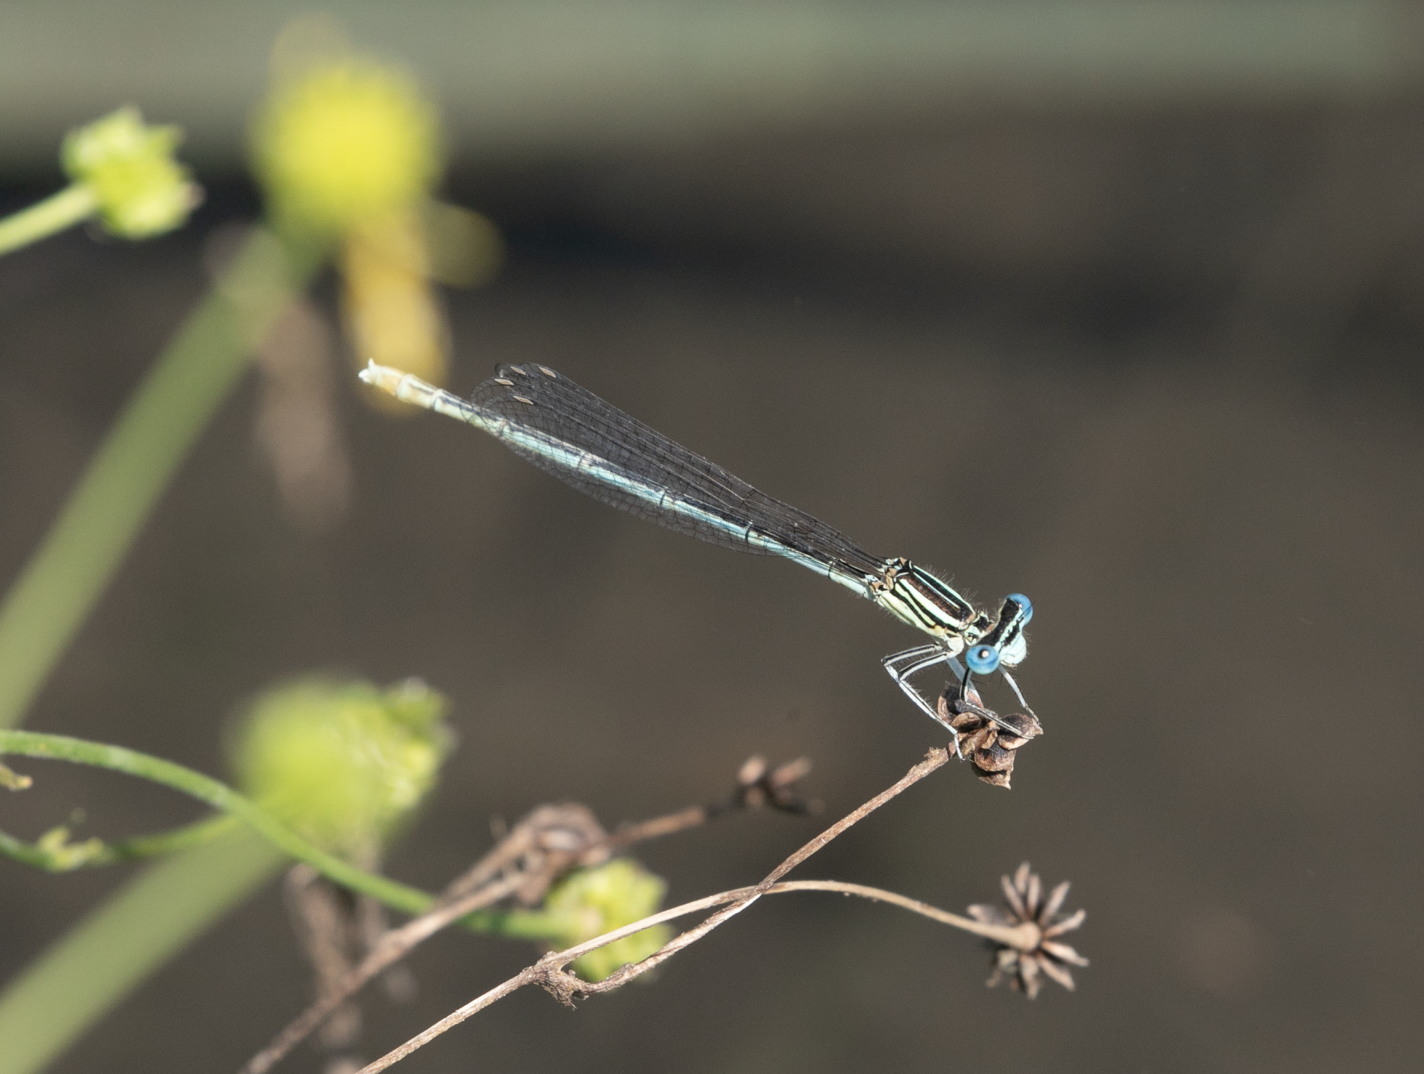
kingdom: Animalia
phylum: Arthropoda
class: Insecta
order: Odonata
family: Platycnemididae
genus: Platycnemis
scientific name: Platycnemis pennipes
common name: White-legged damselfly
